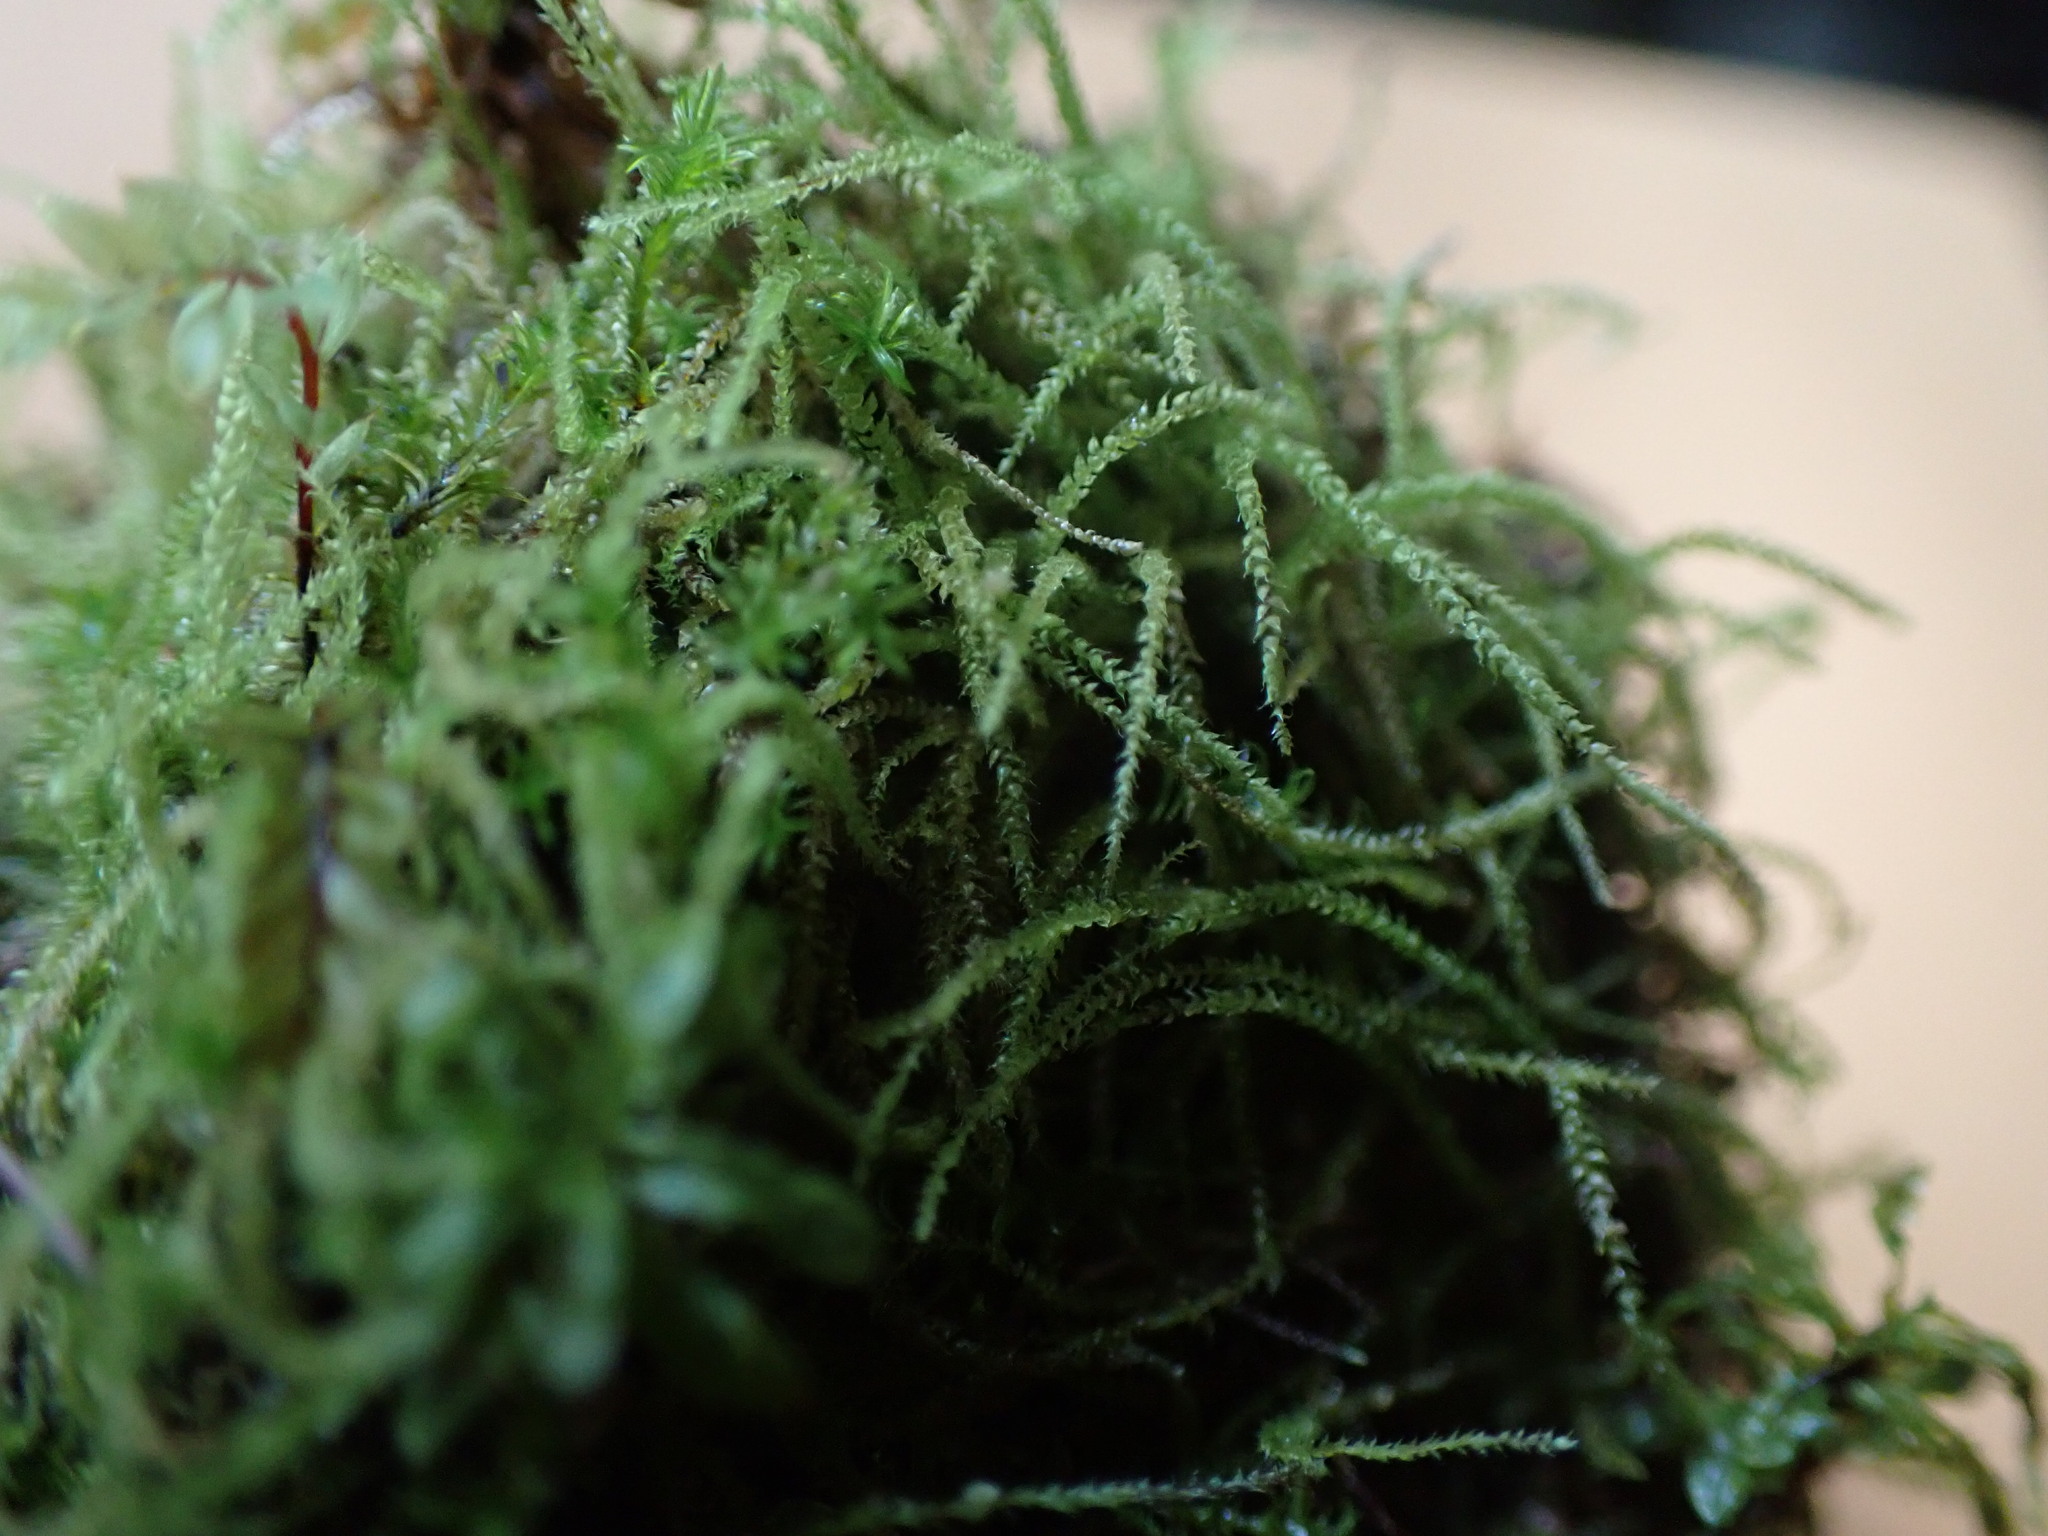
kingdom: Plantae
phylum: Bryophyta
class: Bryopsida
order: Hypnales
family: Plagiotheciaceae
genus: Myurella
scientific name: Myurella sibirica
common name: Siberian mousetail moss
